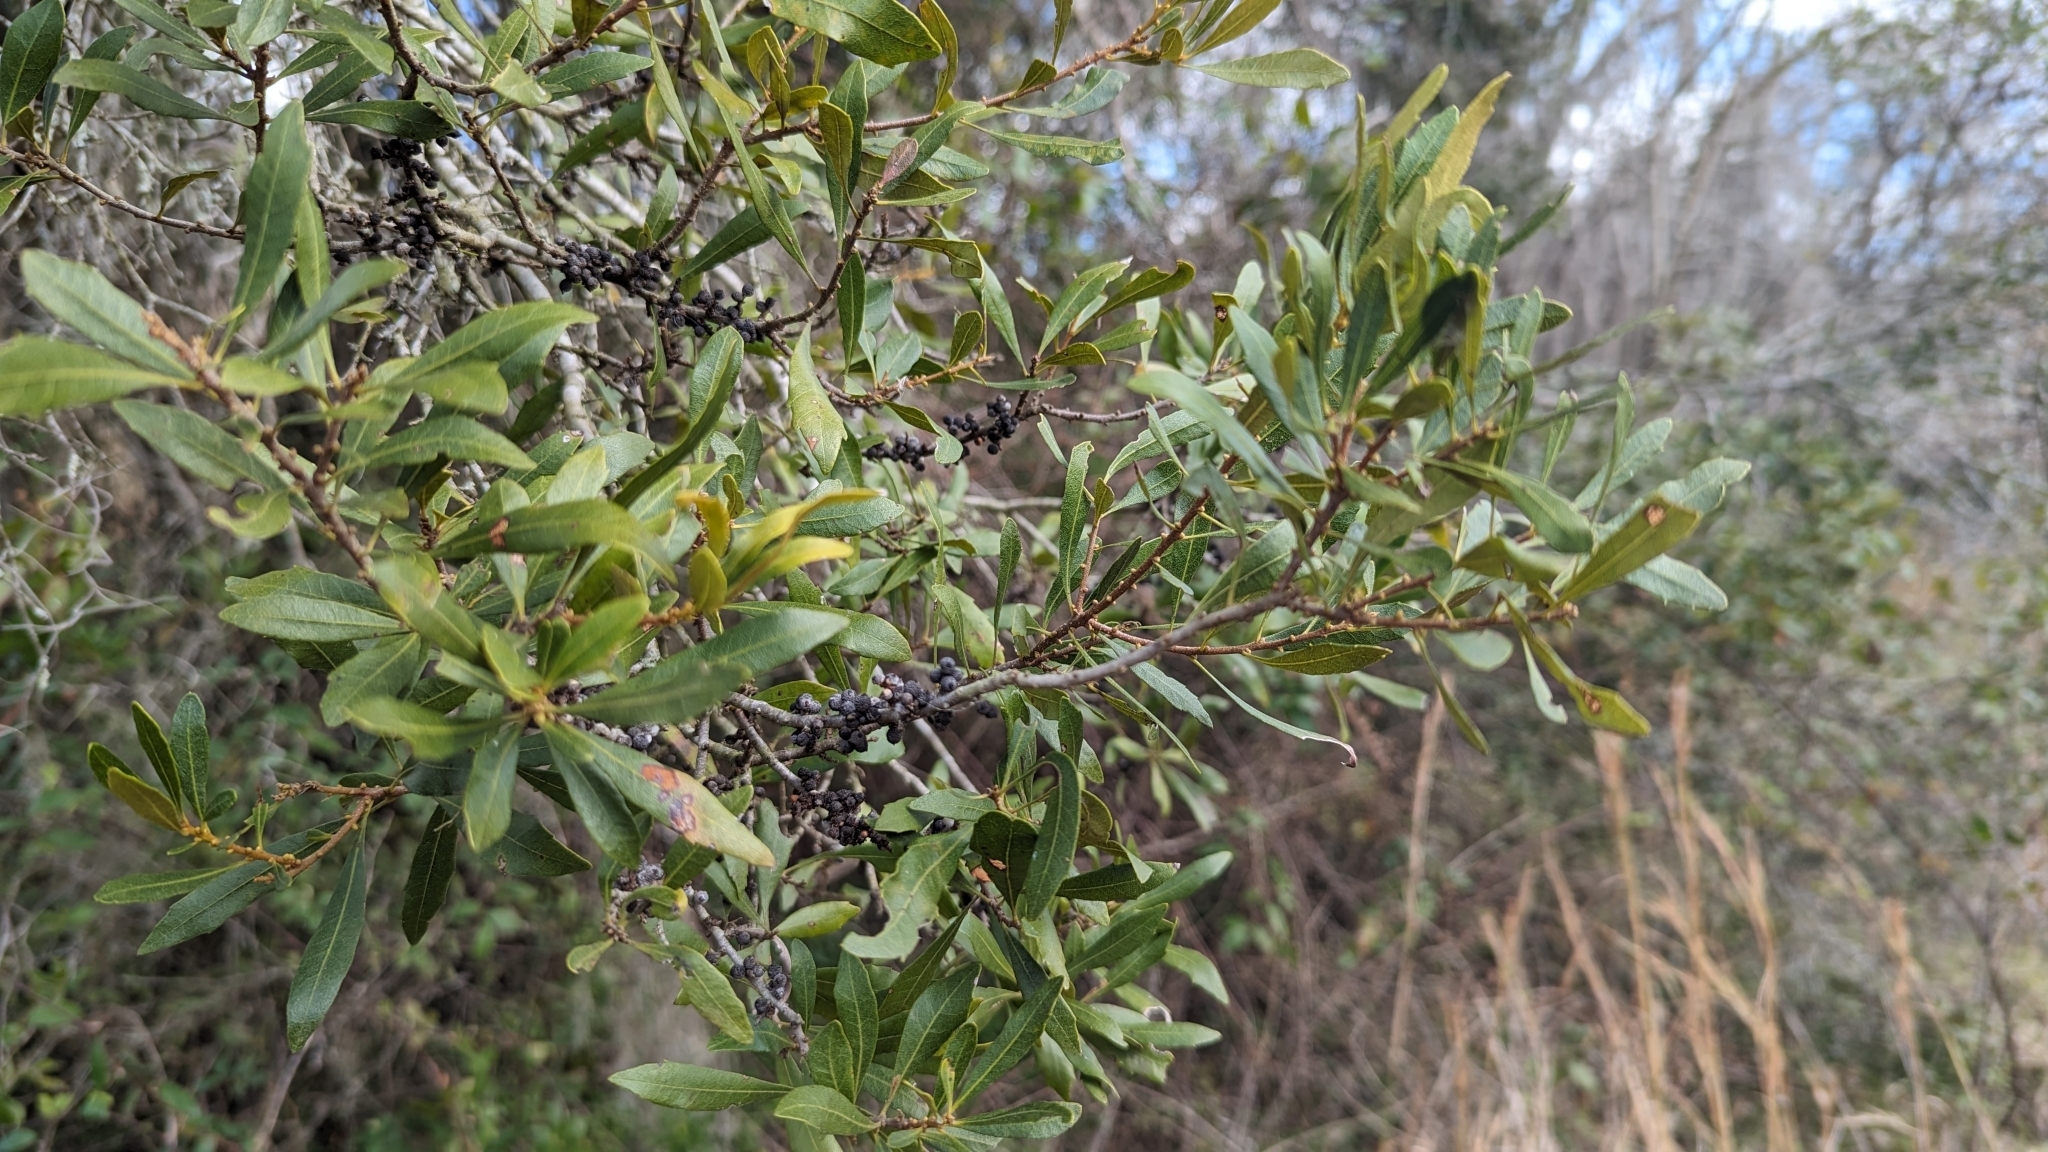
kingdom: Plantae
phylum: Tracheophyta
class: Magnoliopsida
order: Fagales
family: Myricaceae
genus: Morella
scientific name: Morella cerifera
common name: Wax myrtle
